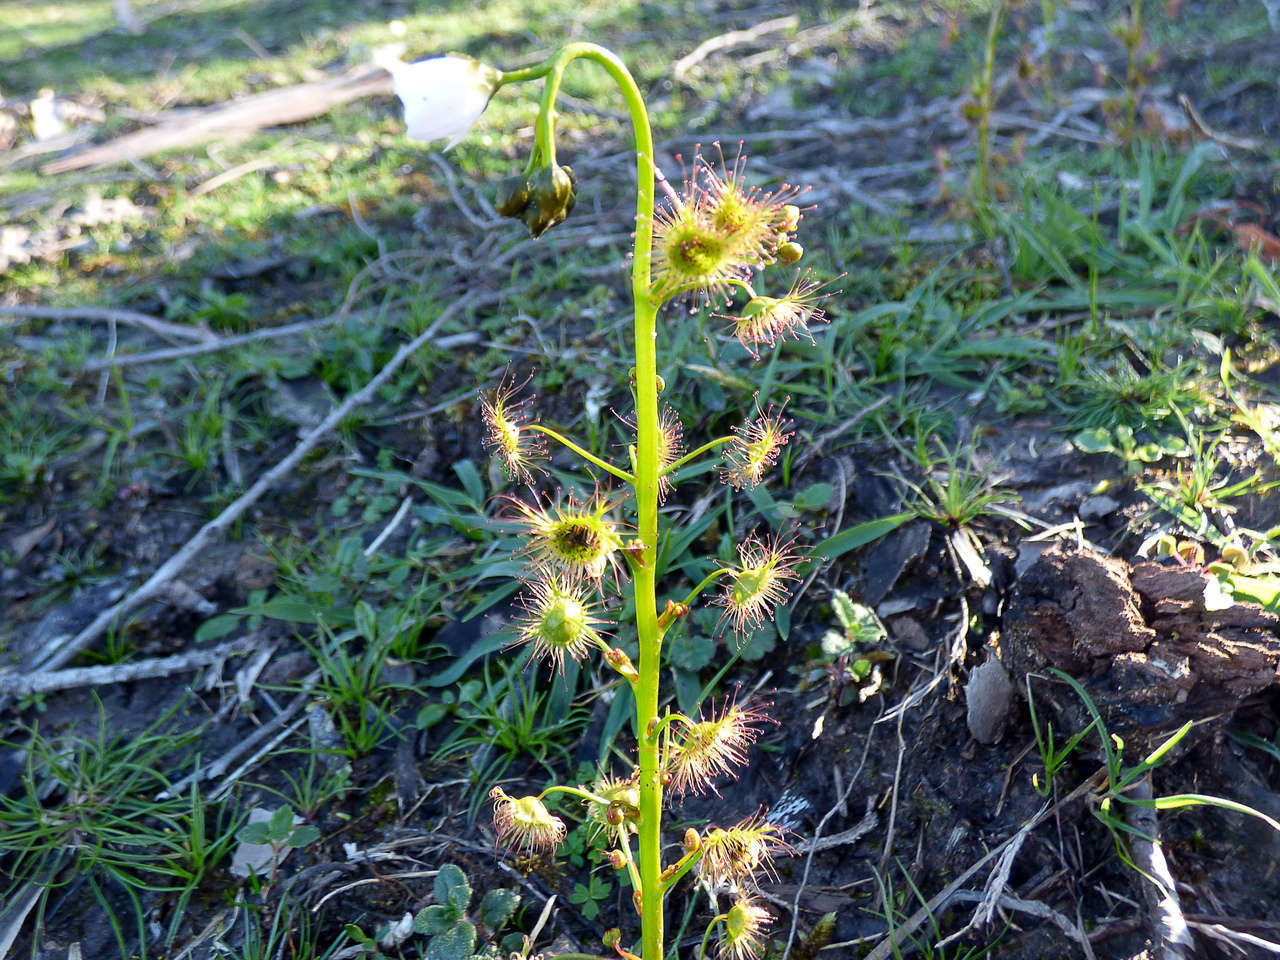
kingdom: Plantae
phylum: Tracheophyta
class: Magnoliopsida
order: Caryophyllales
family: Droseraceae
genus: Drosera
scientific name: Drosera peltata
